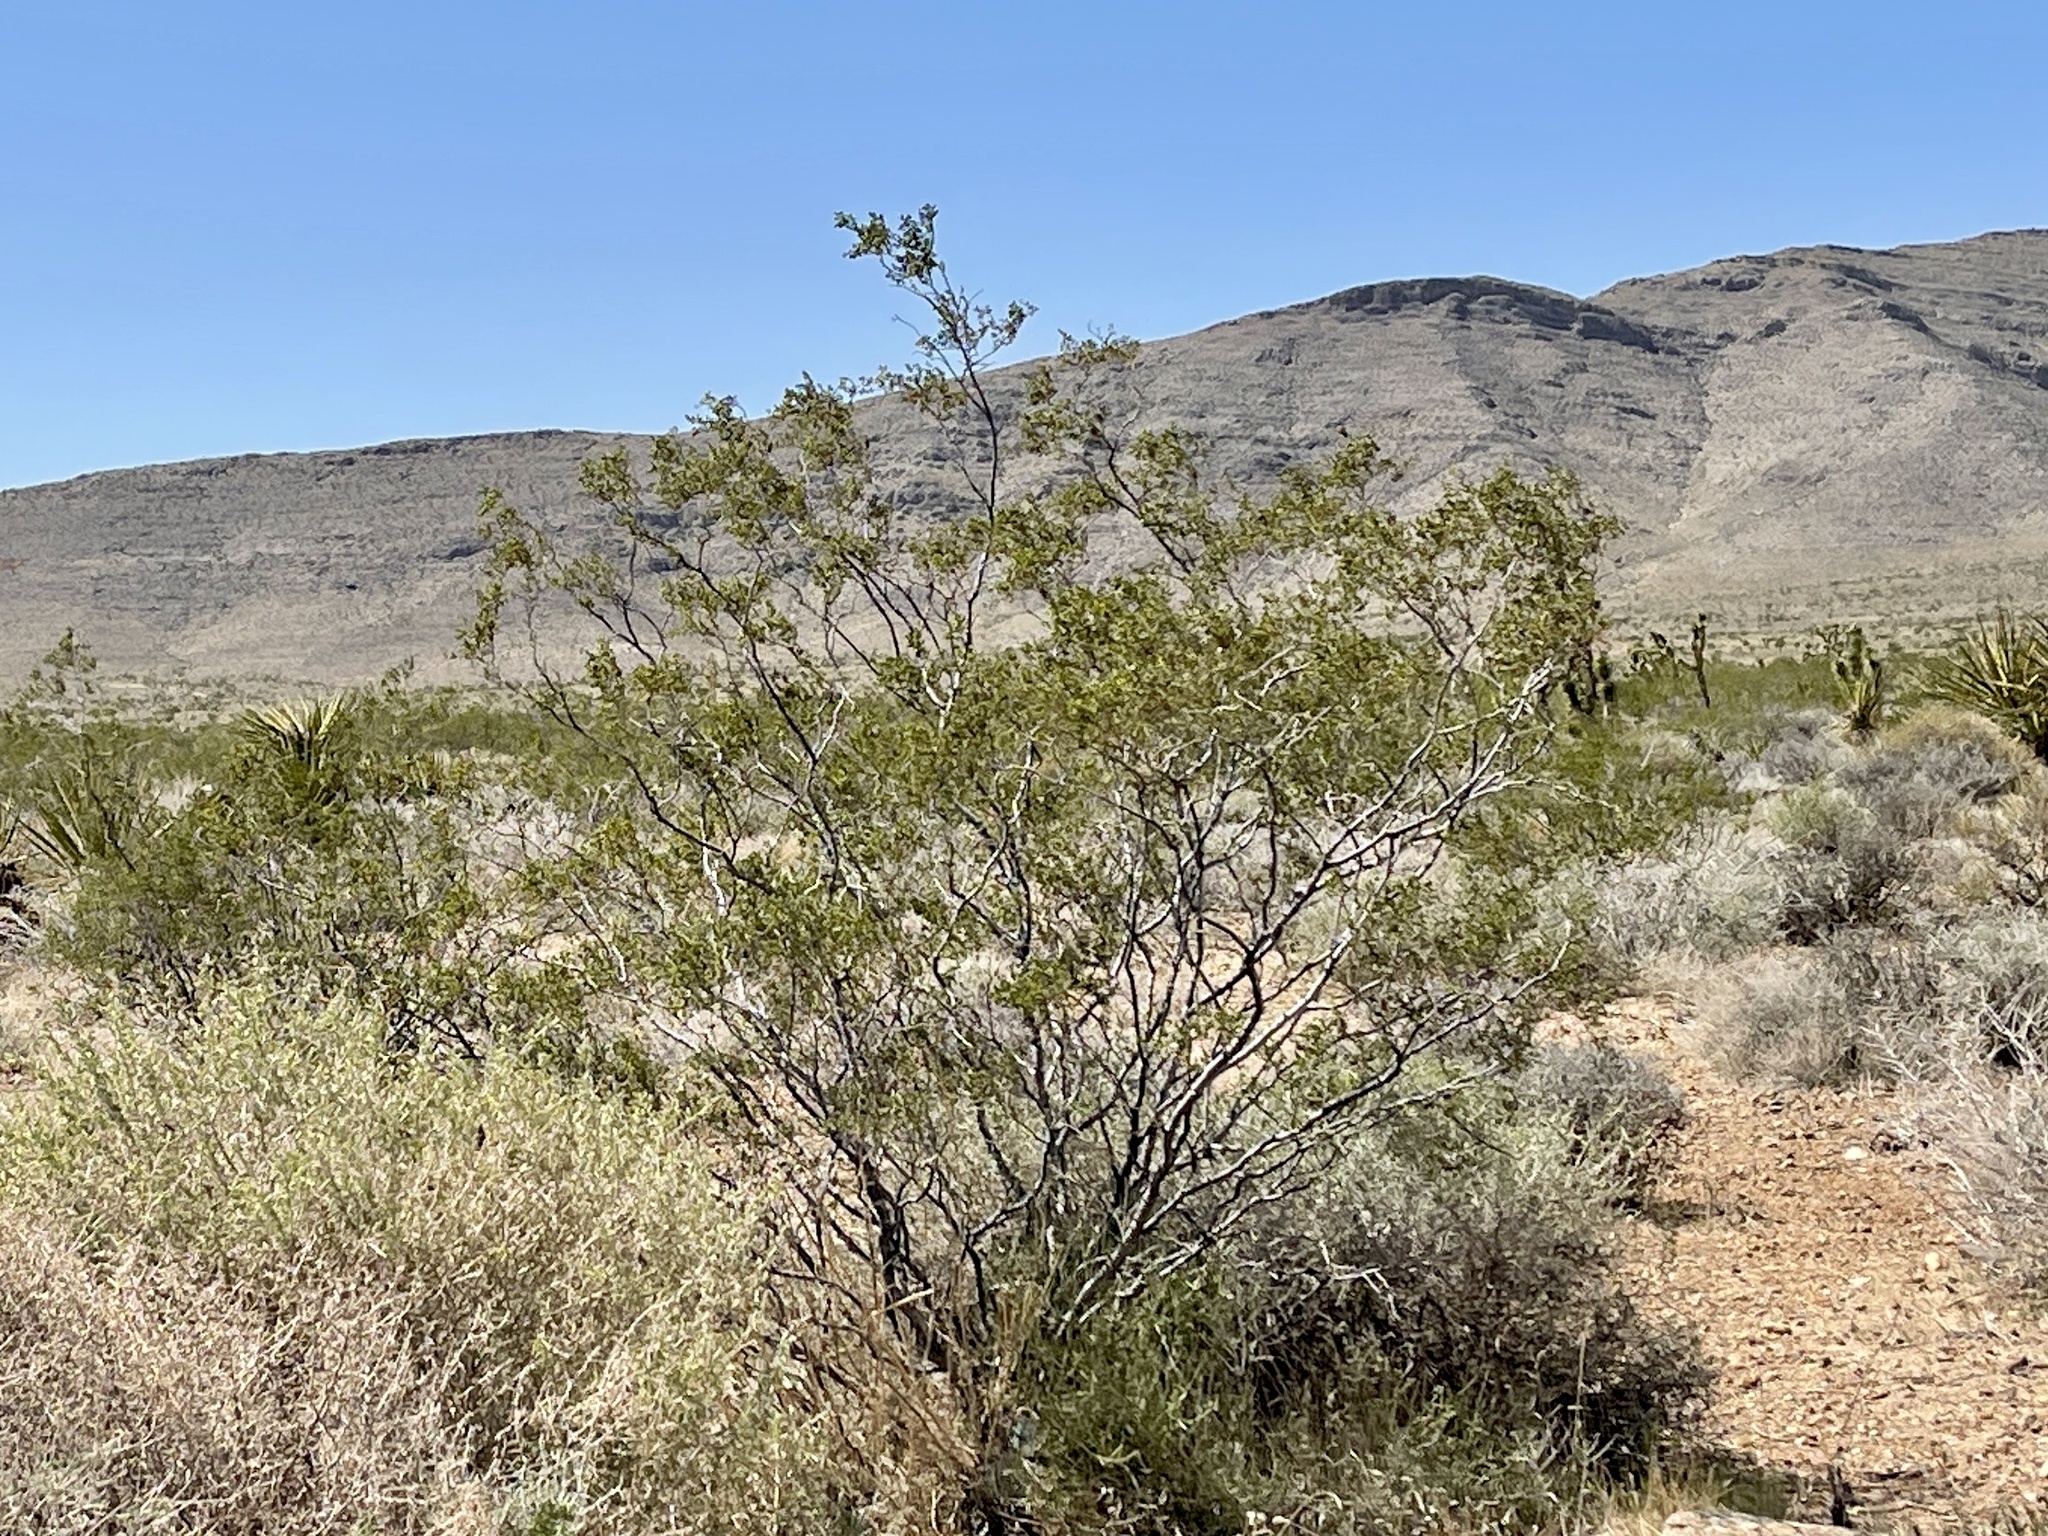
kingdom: Plantae
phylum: Tracheophyta
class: Magnoliopsida
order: Zygophyllales
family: Zygophyllaceae
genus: Larrea
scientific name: Larrea tridentata
